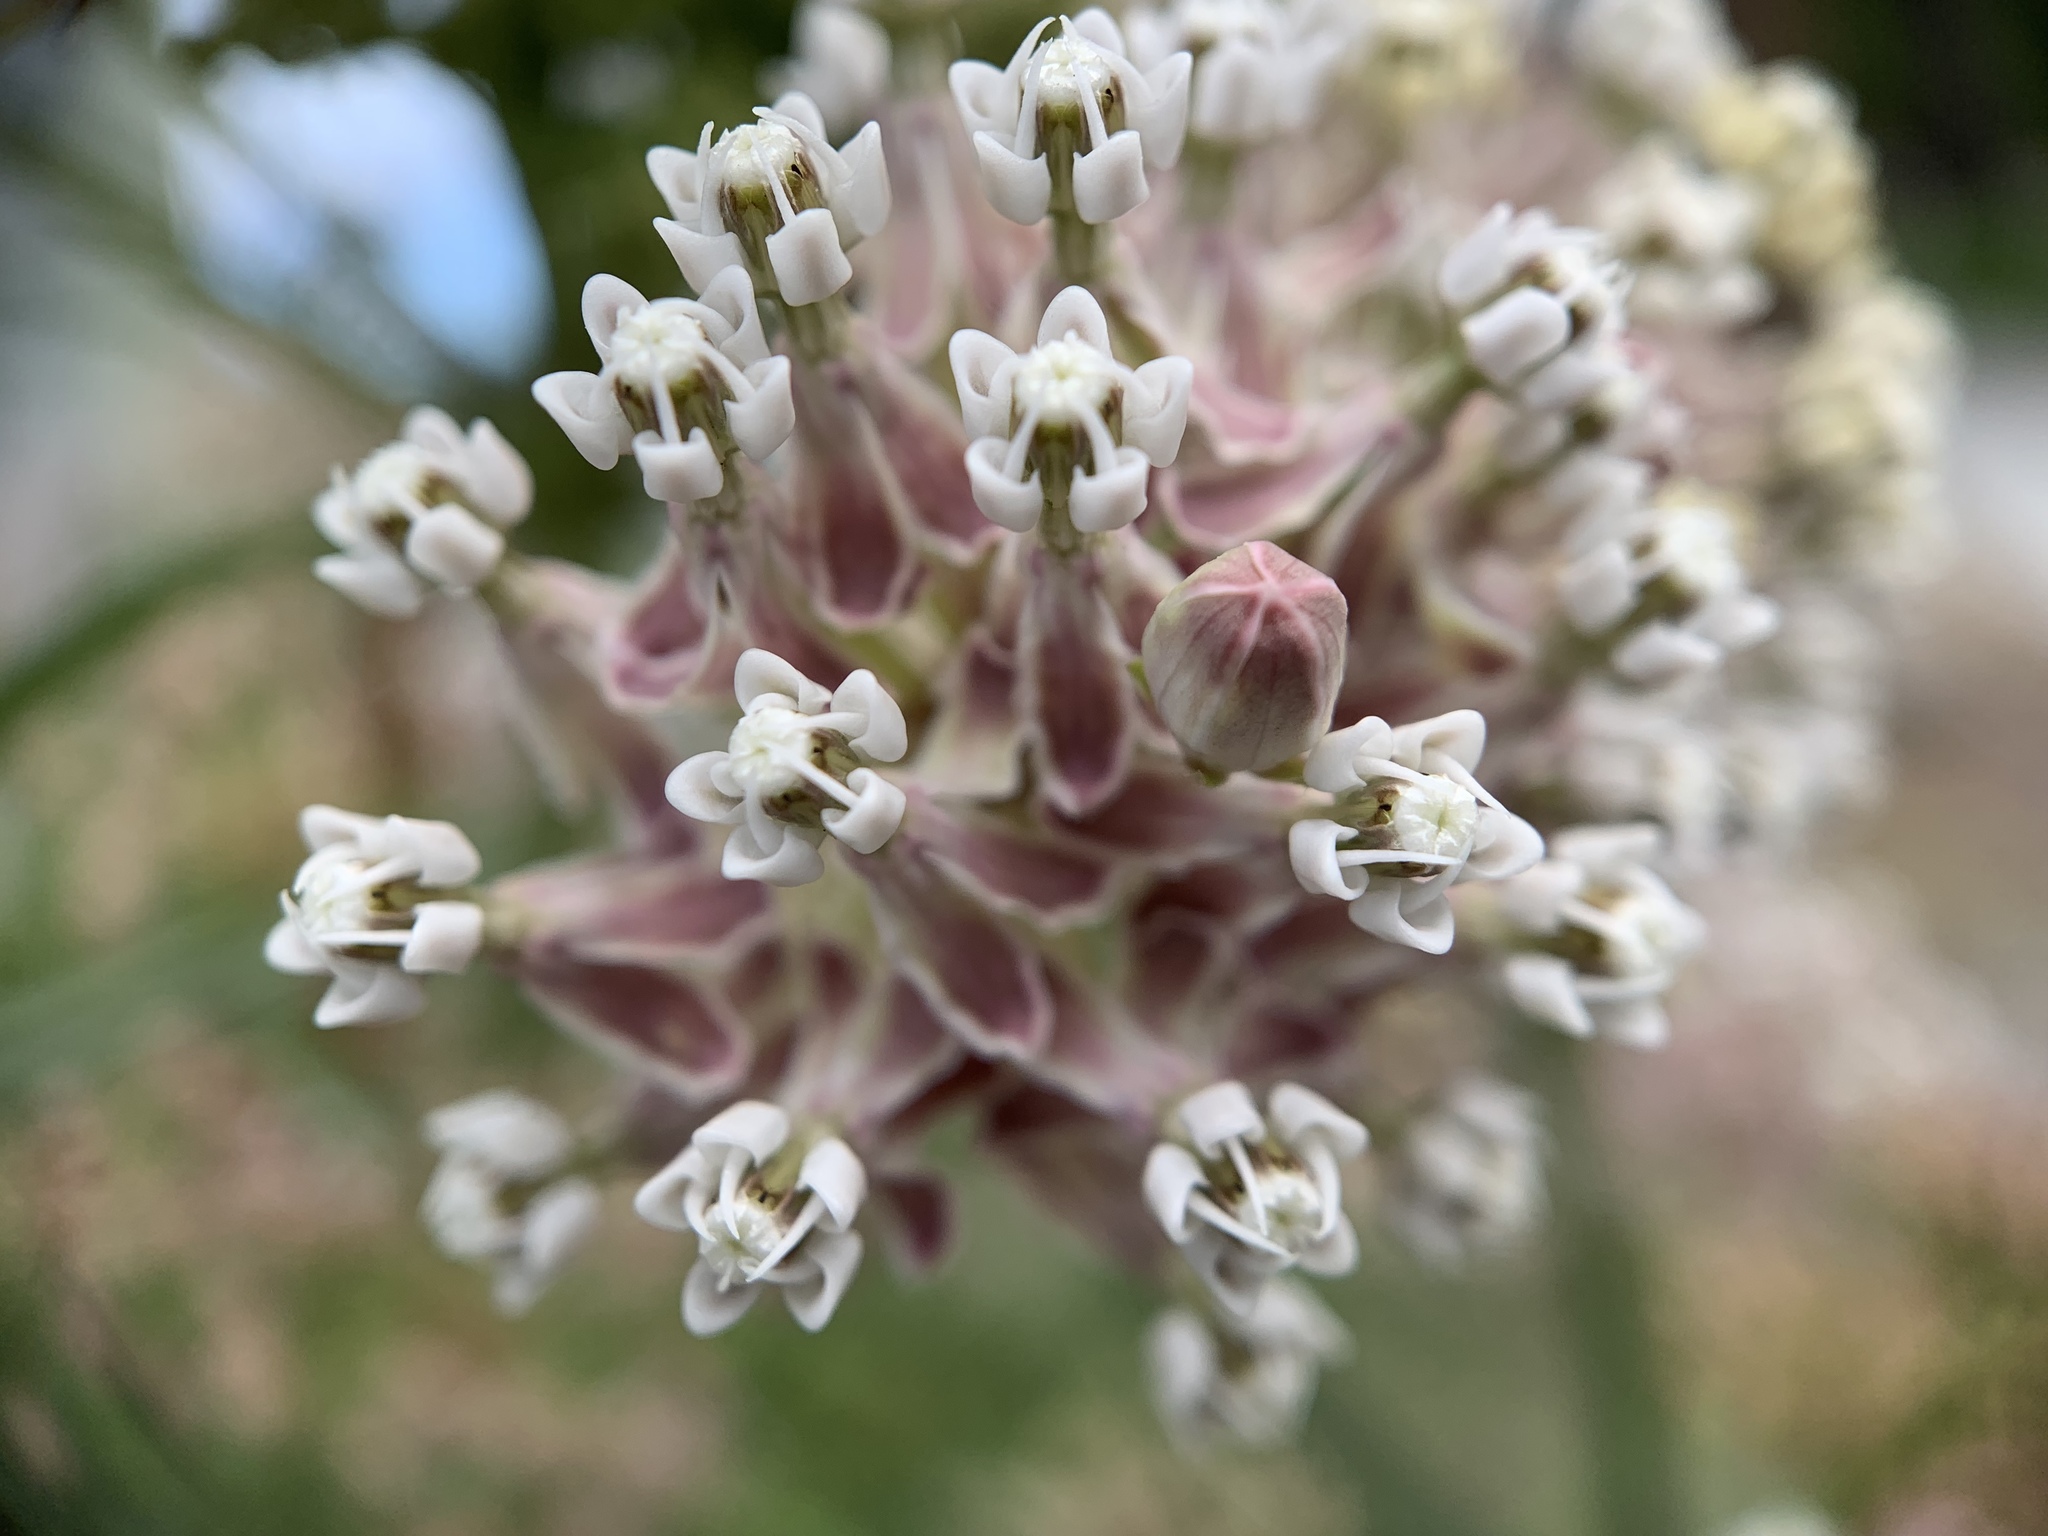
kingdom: Plantae
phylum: Tracheophyta
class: Magnoliopsida
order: Gentianales
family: Apocynaceae
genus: Asclepias
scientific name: Asclepias fascicularis
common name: Mexican milkweed
